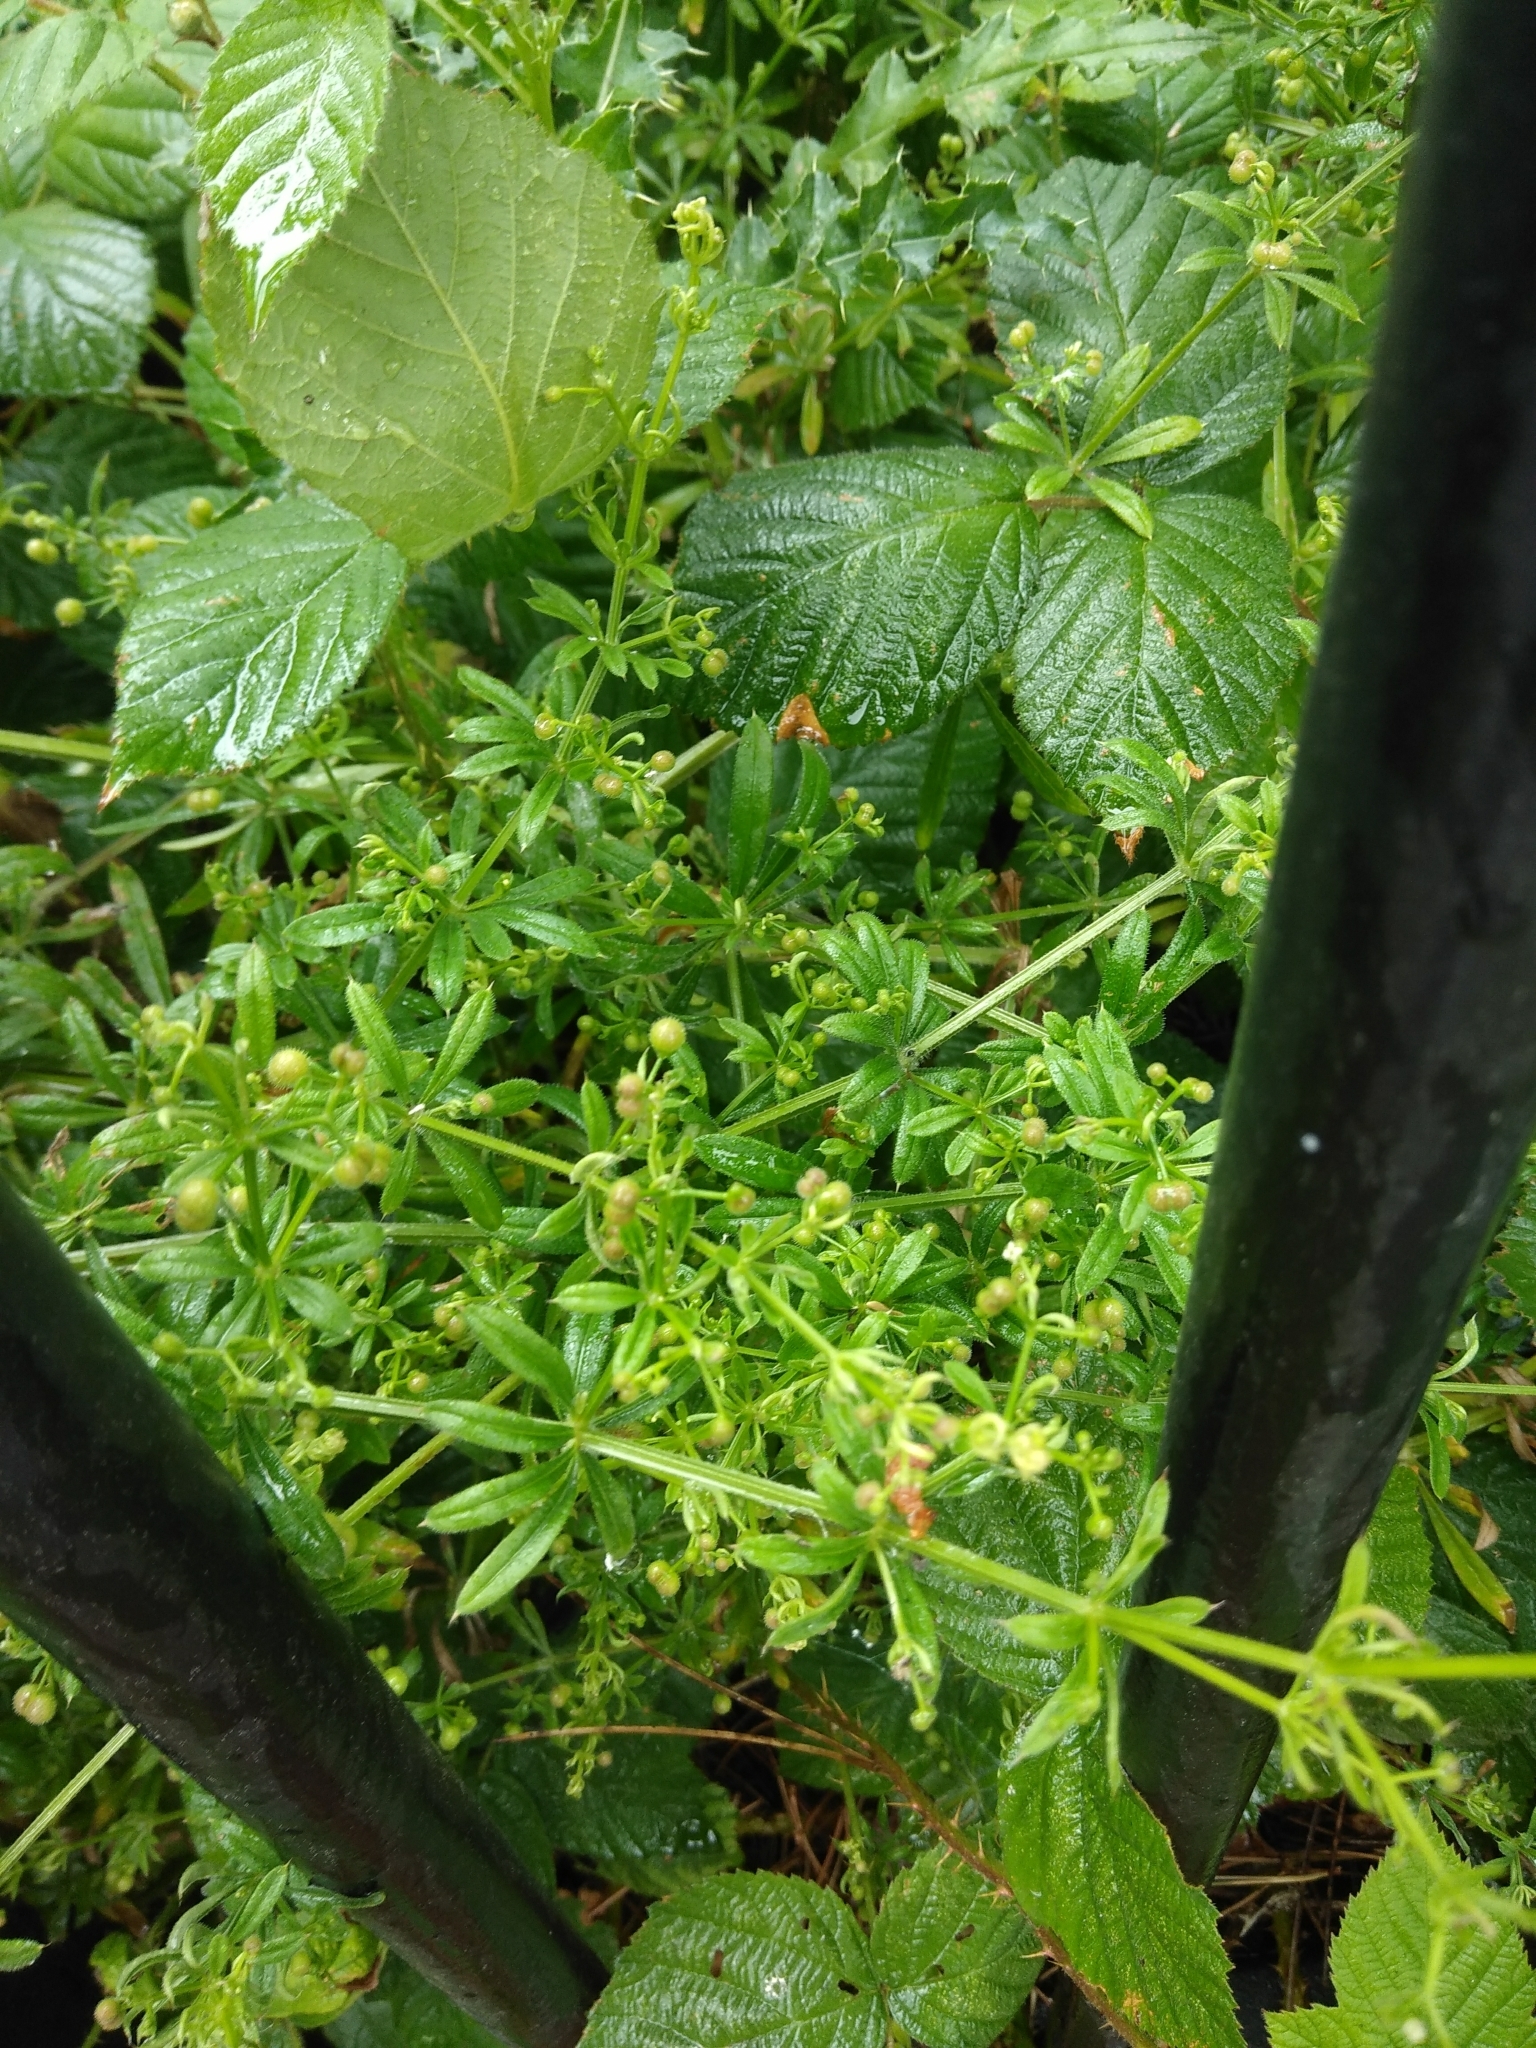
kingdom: Plantae
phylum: Tracheophyta
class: Magnoliopsida
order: Gentianales
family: Rubiaceae
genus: Galium
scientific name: Galium aparine
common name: Cleavers
